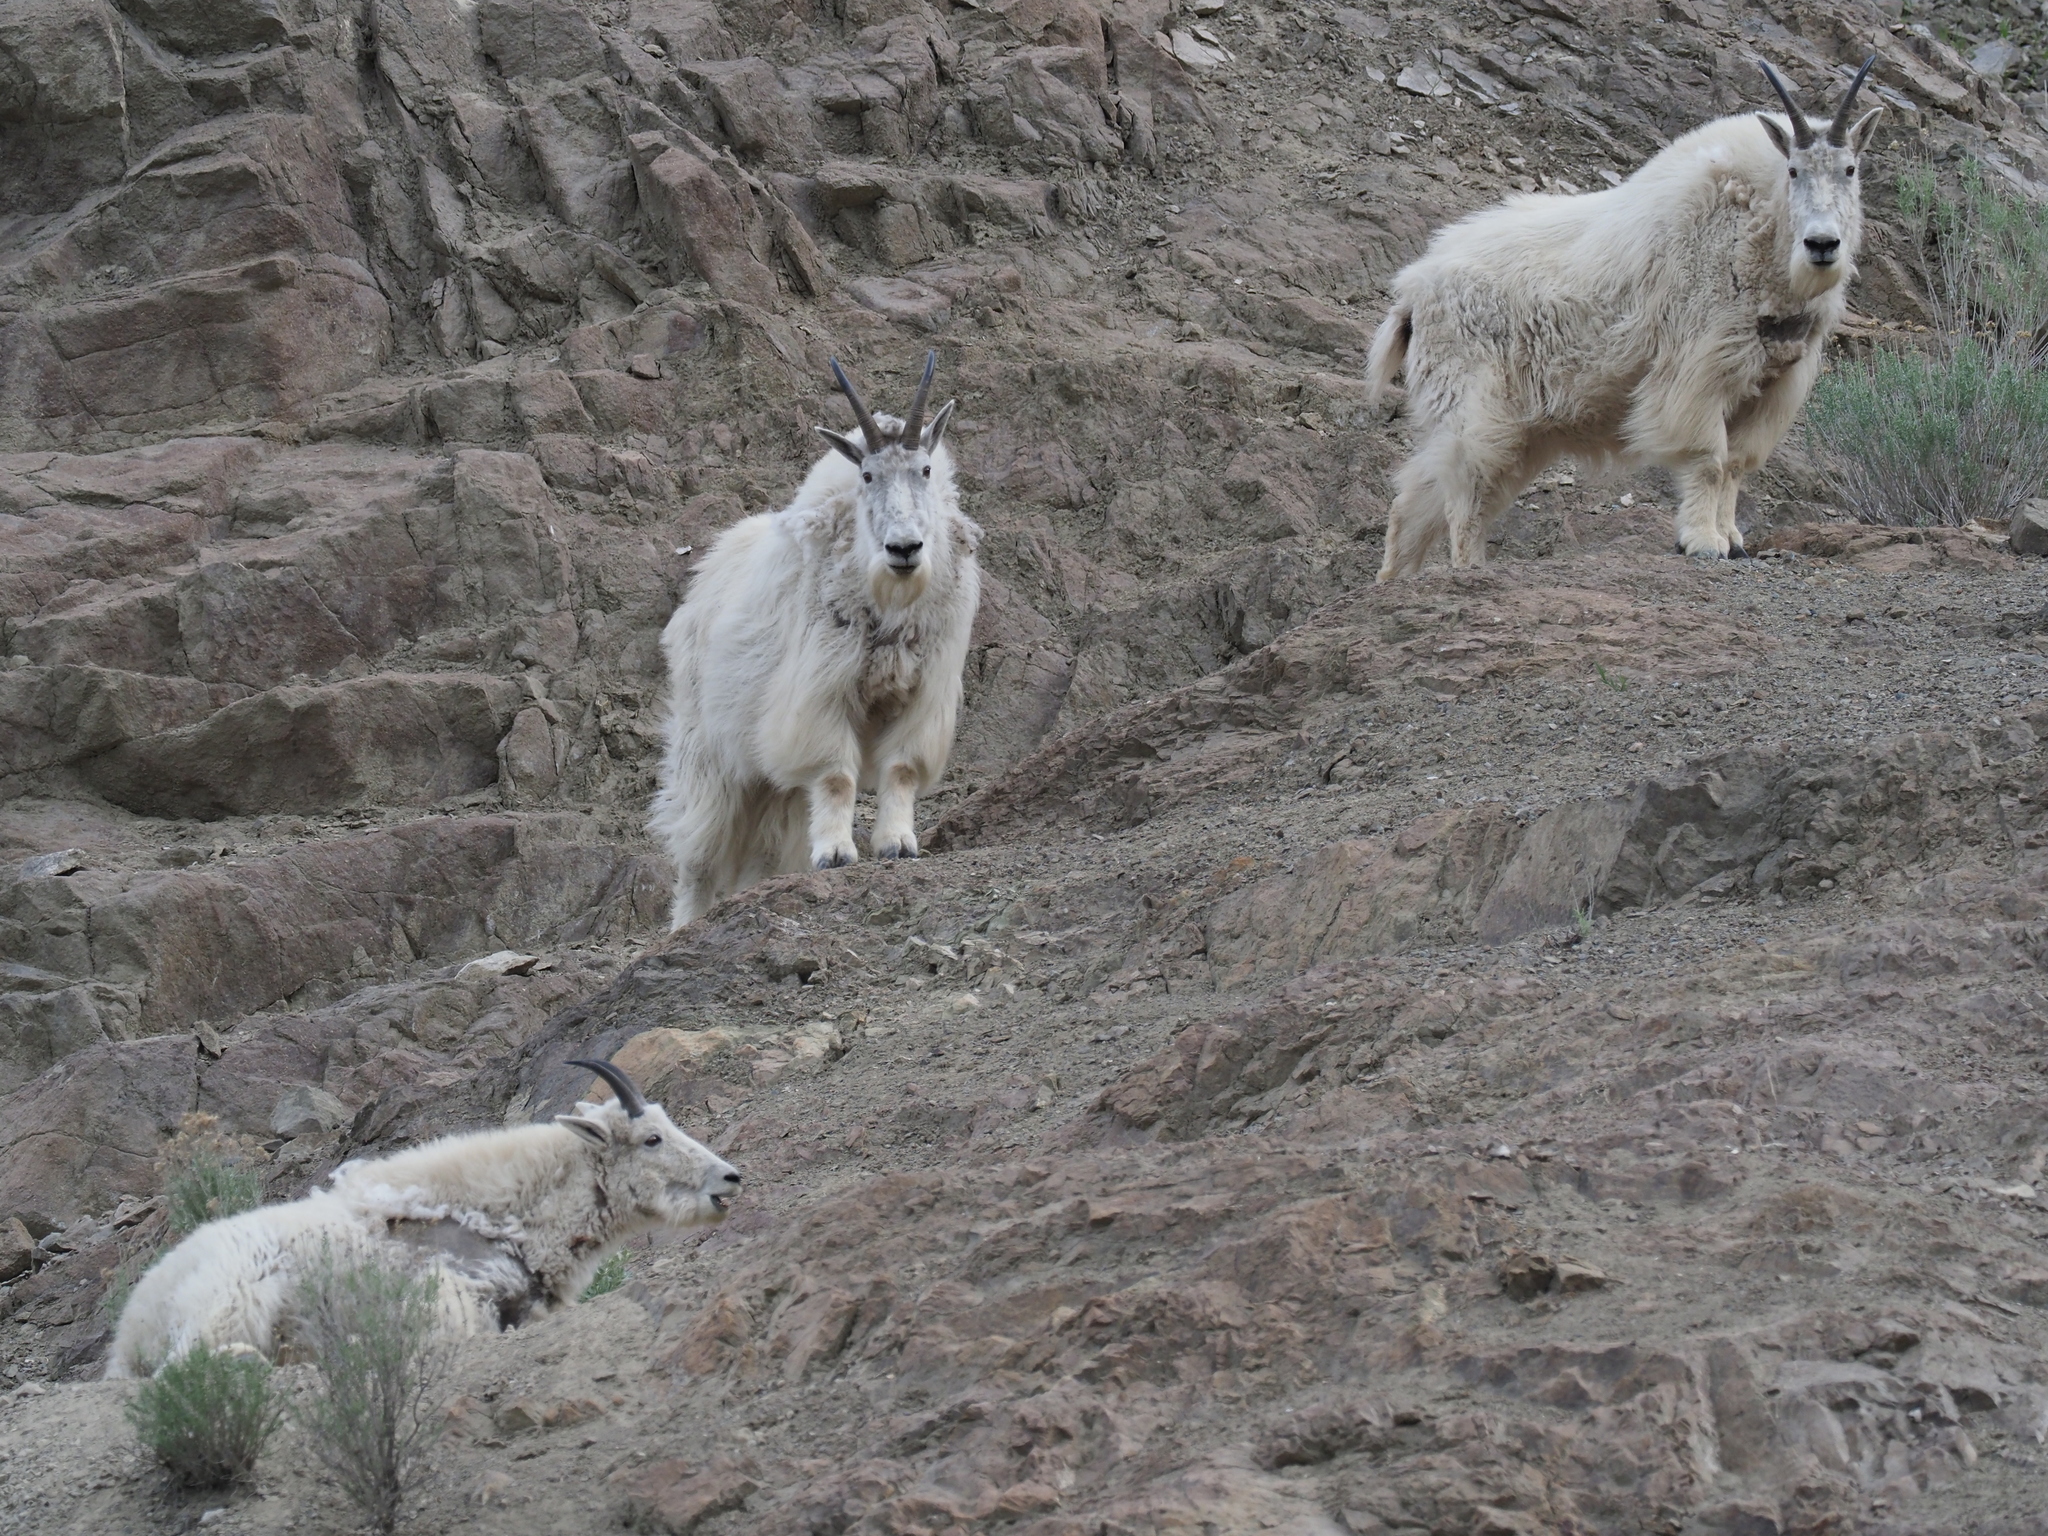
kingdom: Animalia
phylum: Chordata
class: Mammalia
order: Artiodactyla
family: Bovidae
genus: Oreamnos
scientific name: Oreamnos americanus
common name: Mountain goat
